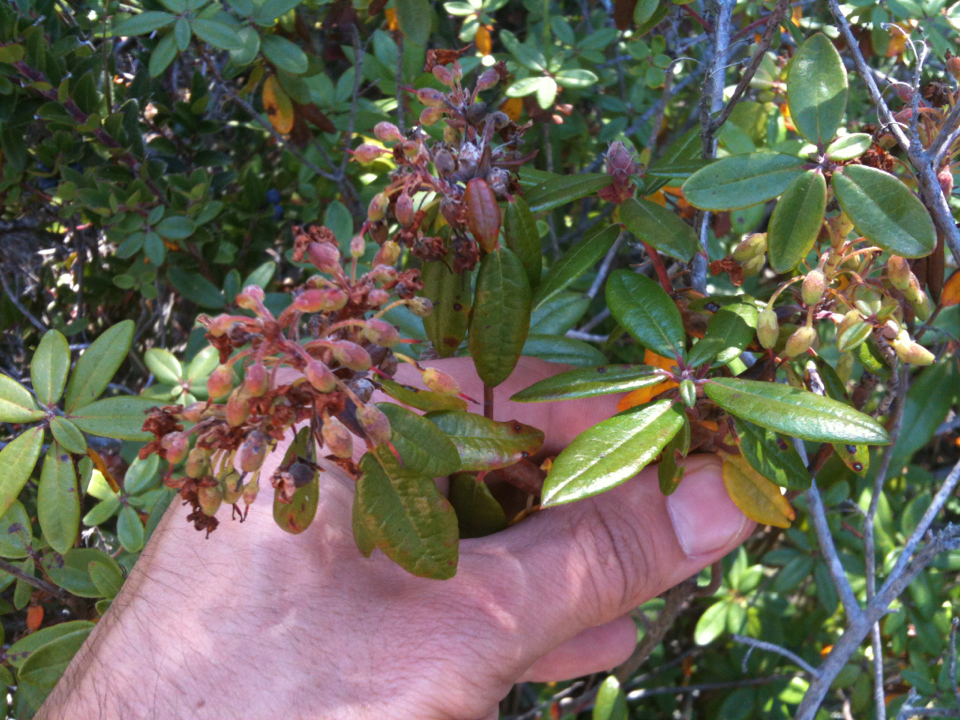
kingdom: Plantae
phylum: Tracheophyta
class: Magnoliopsida
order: Ericales
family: Ericaceae
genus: Rhododendron
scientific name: Rhododendron columbianum
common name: Western labrador tea
